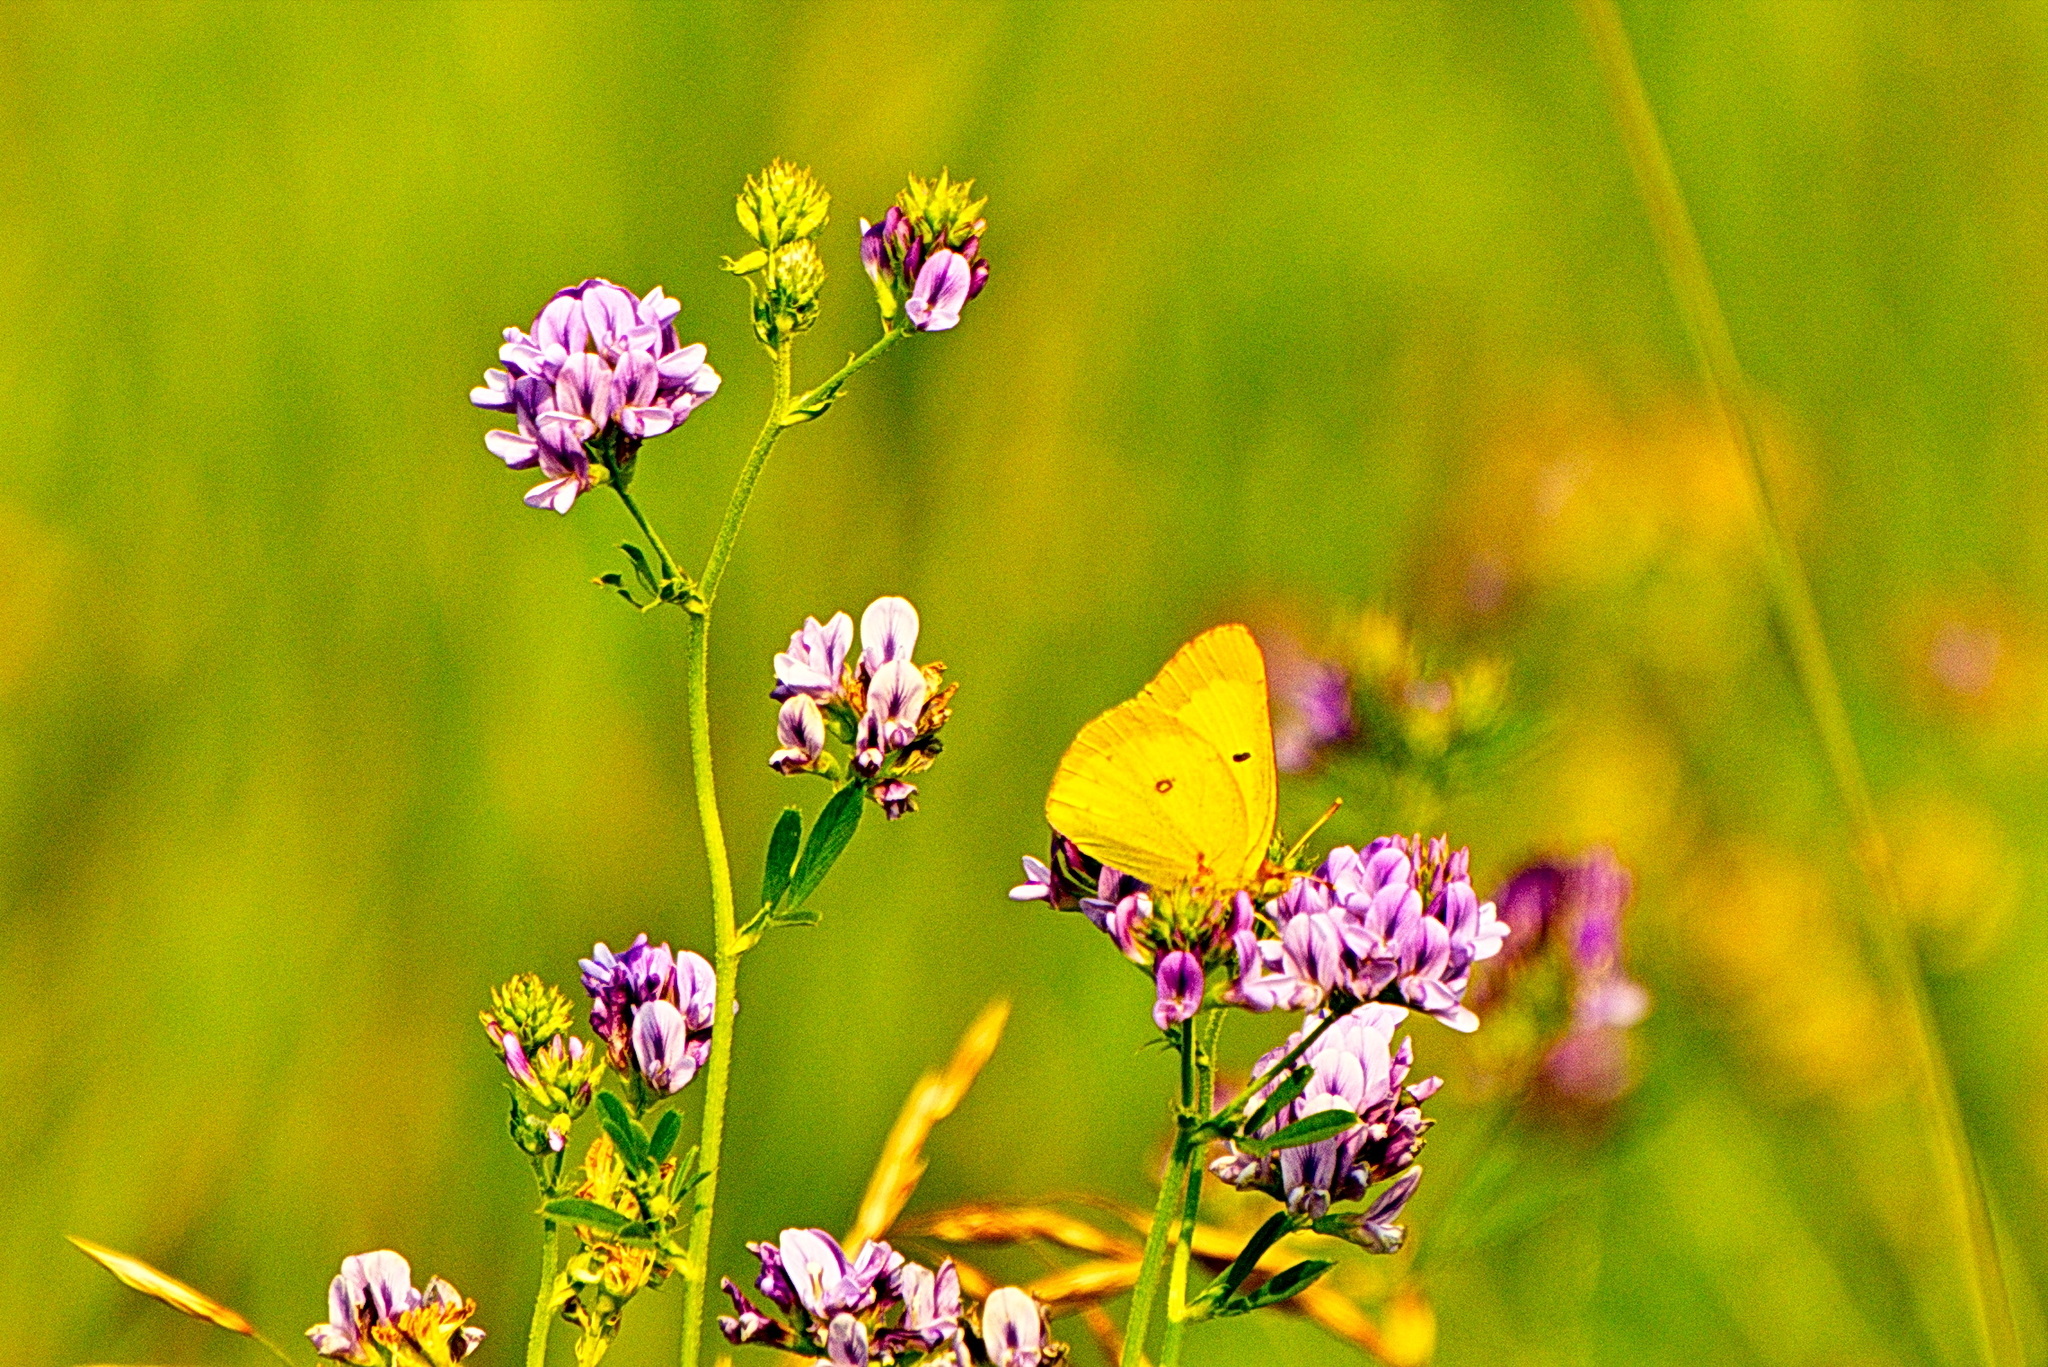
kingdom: Animalia
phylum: Arthropoda
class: Insecta
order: Lepidoptera
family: Pieridae
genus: Colias
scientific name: Colias philodice
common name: Clouded sulphur
